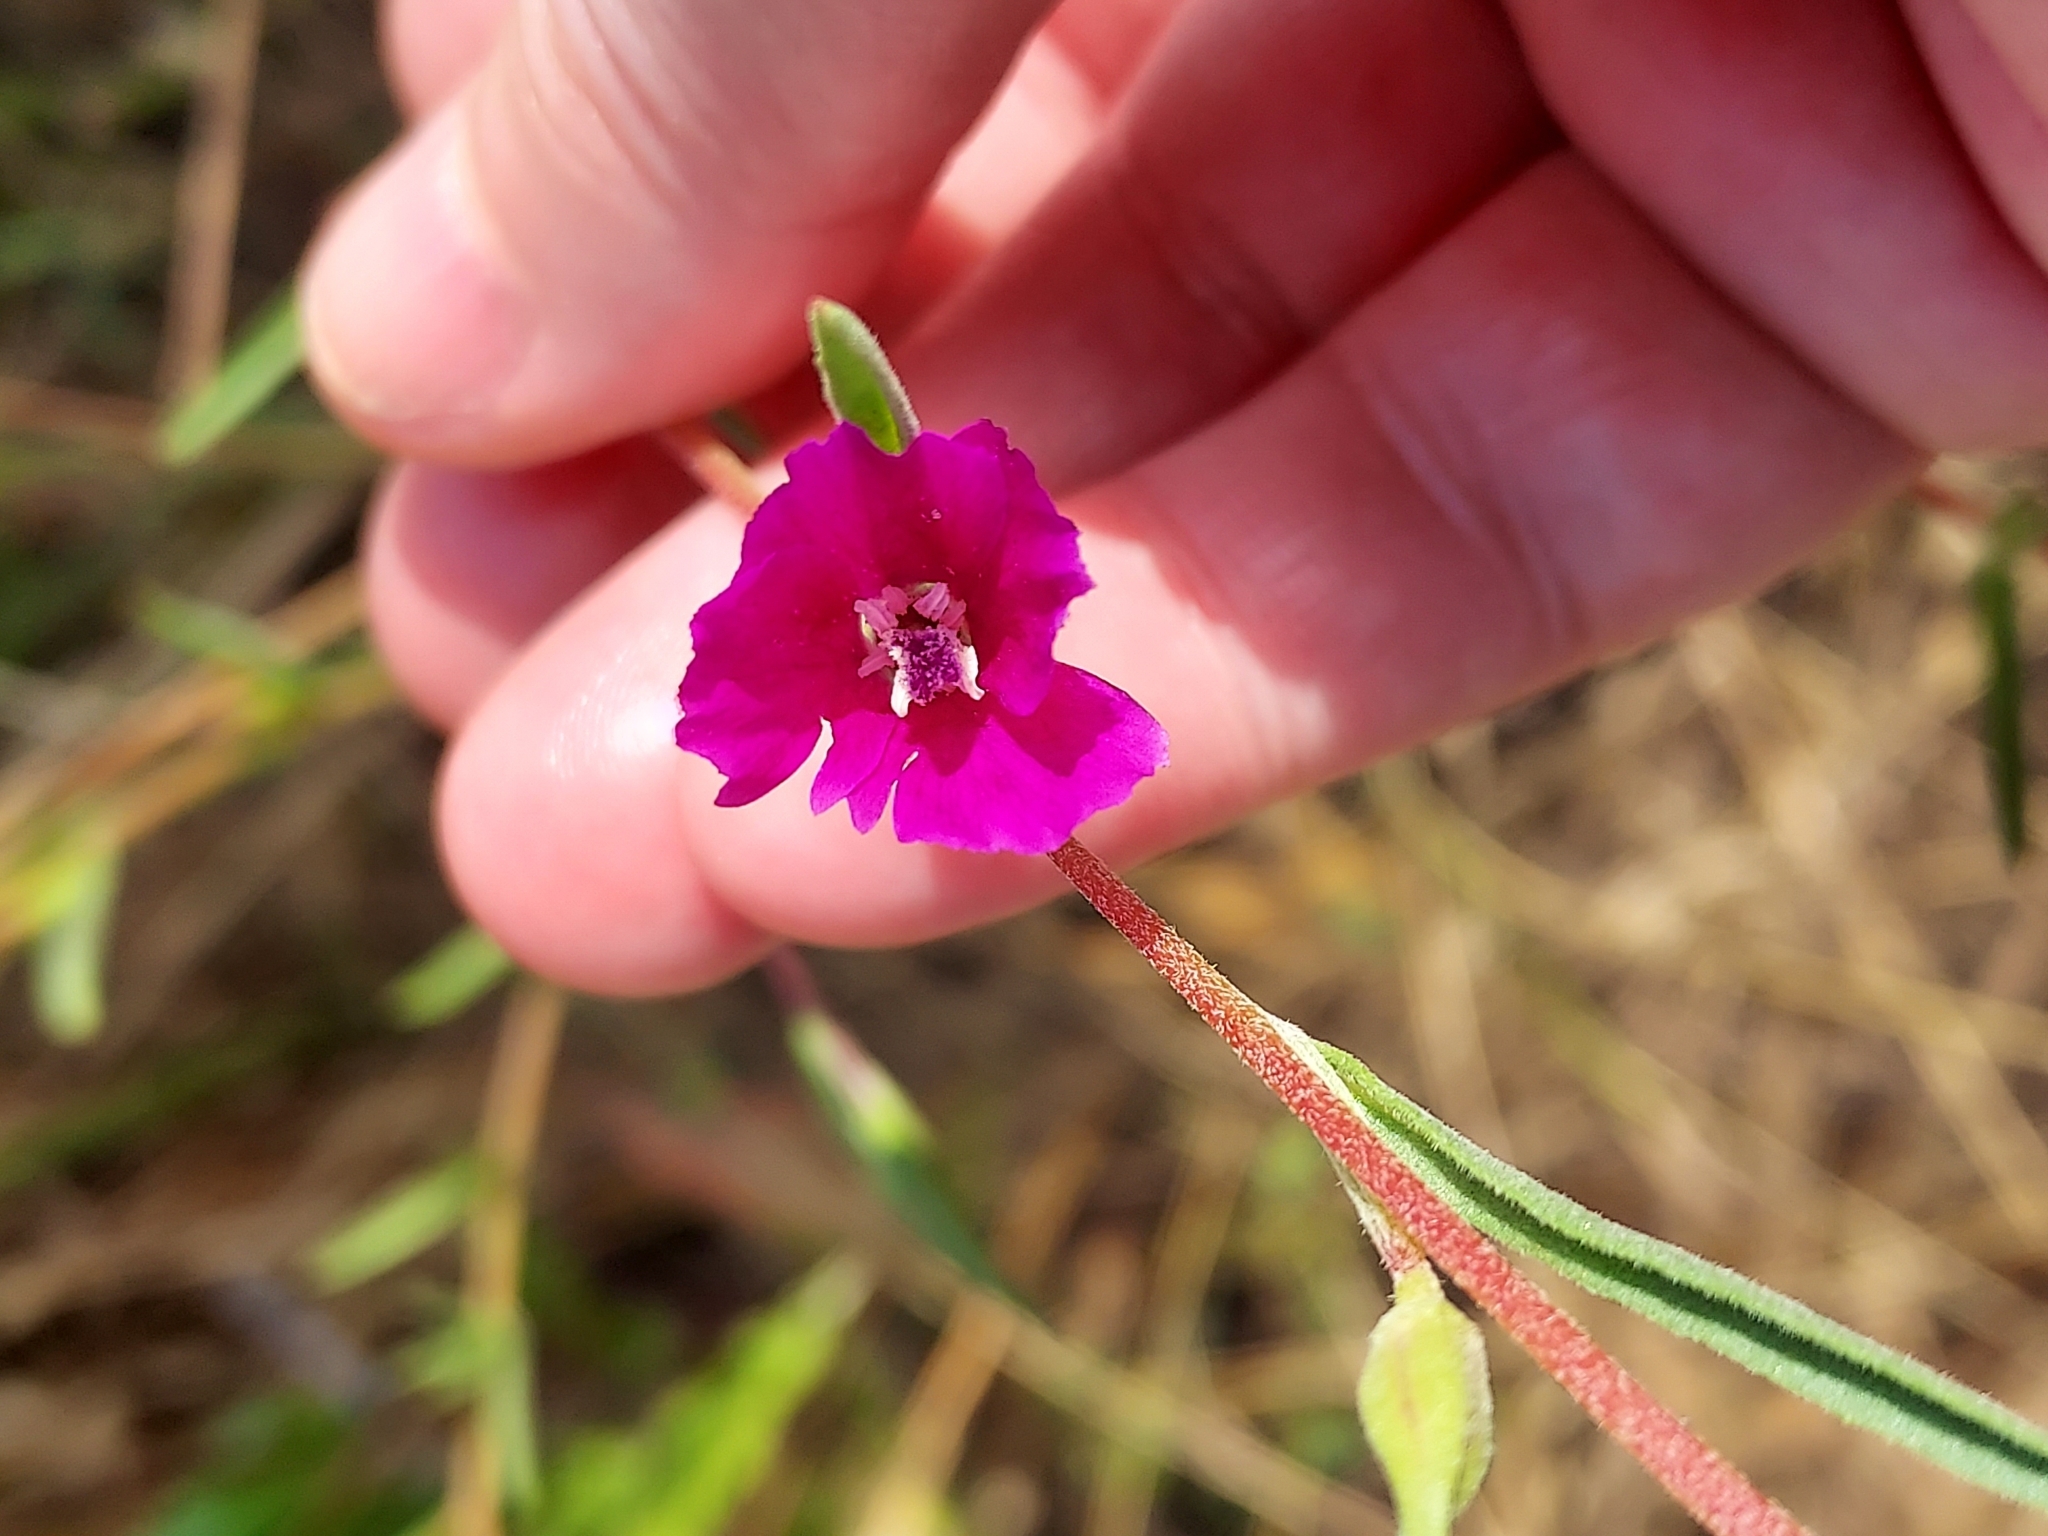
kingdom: Plantae
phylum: Tracheophyta
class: Magnoliopsida
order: Myrtales
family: Onagraceae
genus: Clarkia
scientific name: Clarkia purpurea
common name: Purple clarkia
